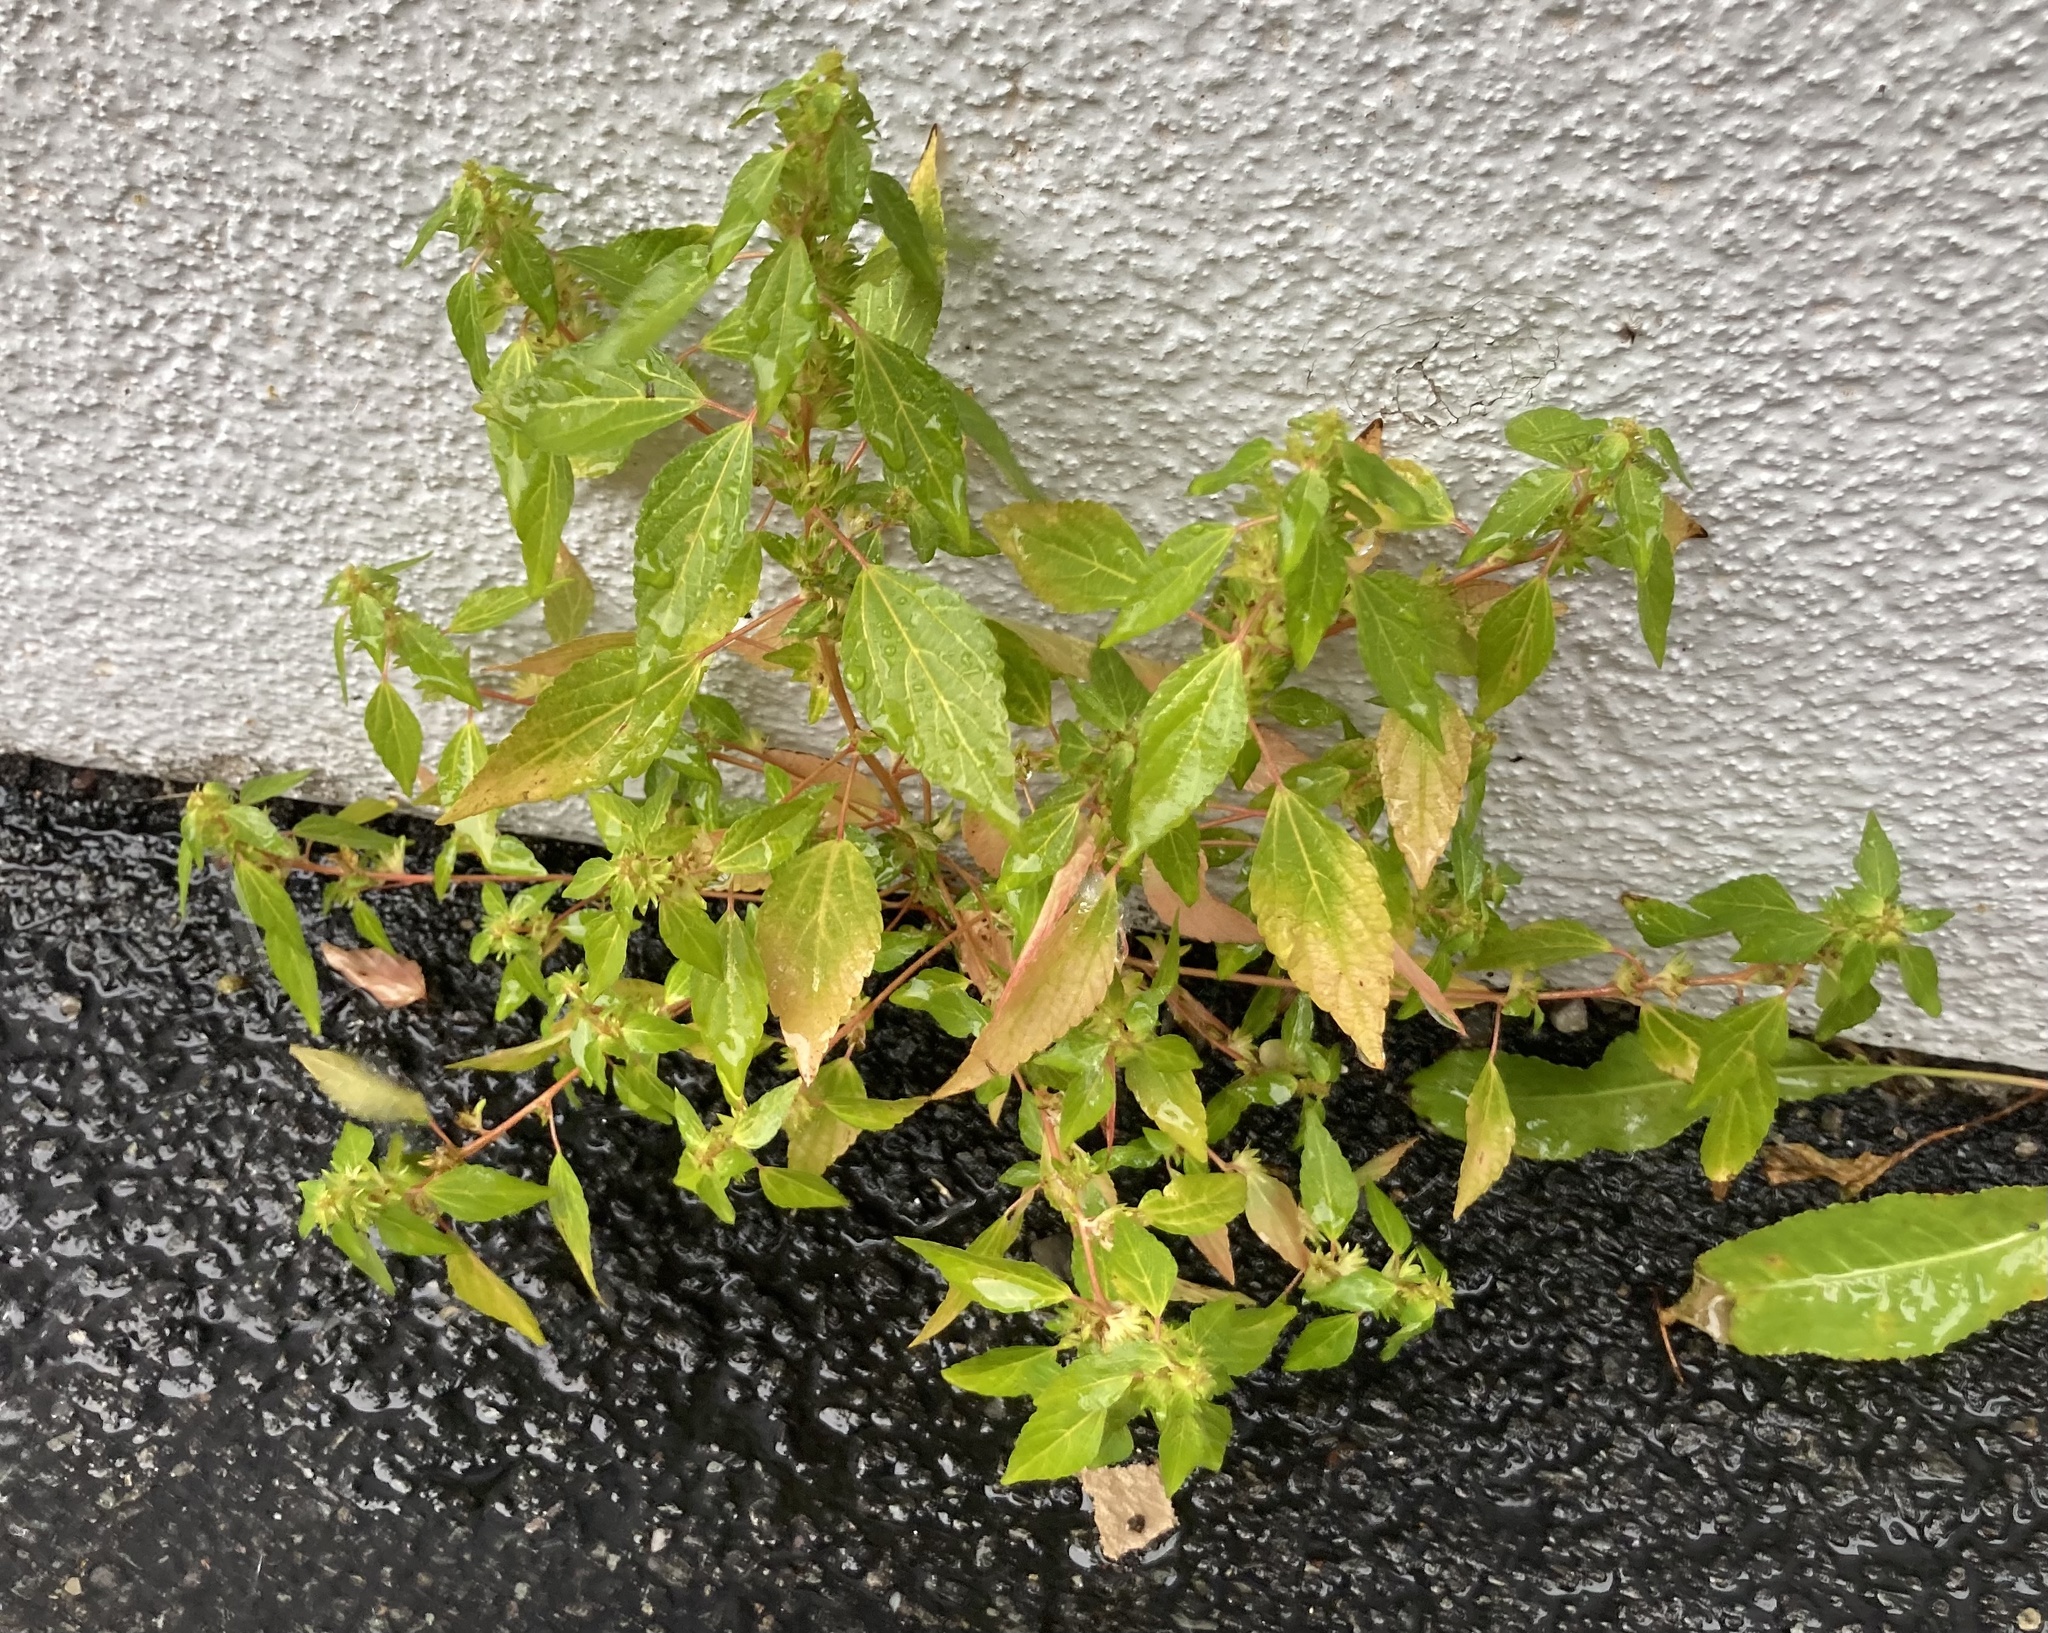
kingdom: Plantae
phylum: Tracheophyta
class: Magnoliopsida
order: Malpighiales
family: Euphorbiaceae
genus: Acalypha
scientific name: Acalypha rhomboidea
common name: Rhombic copperleaf
